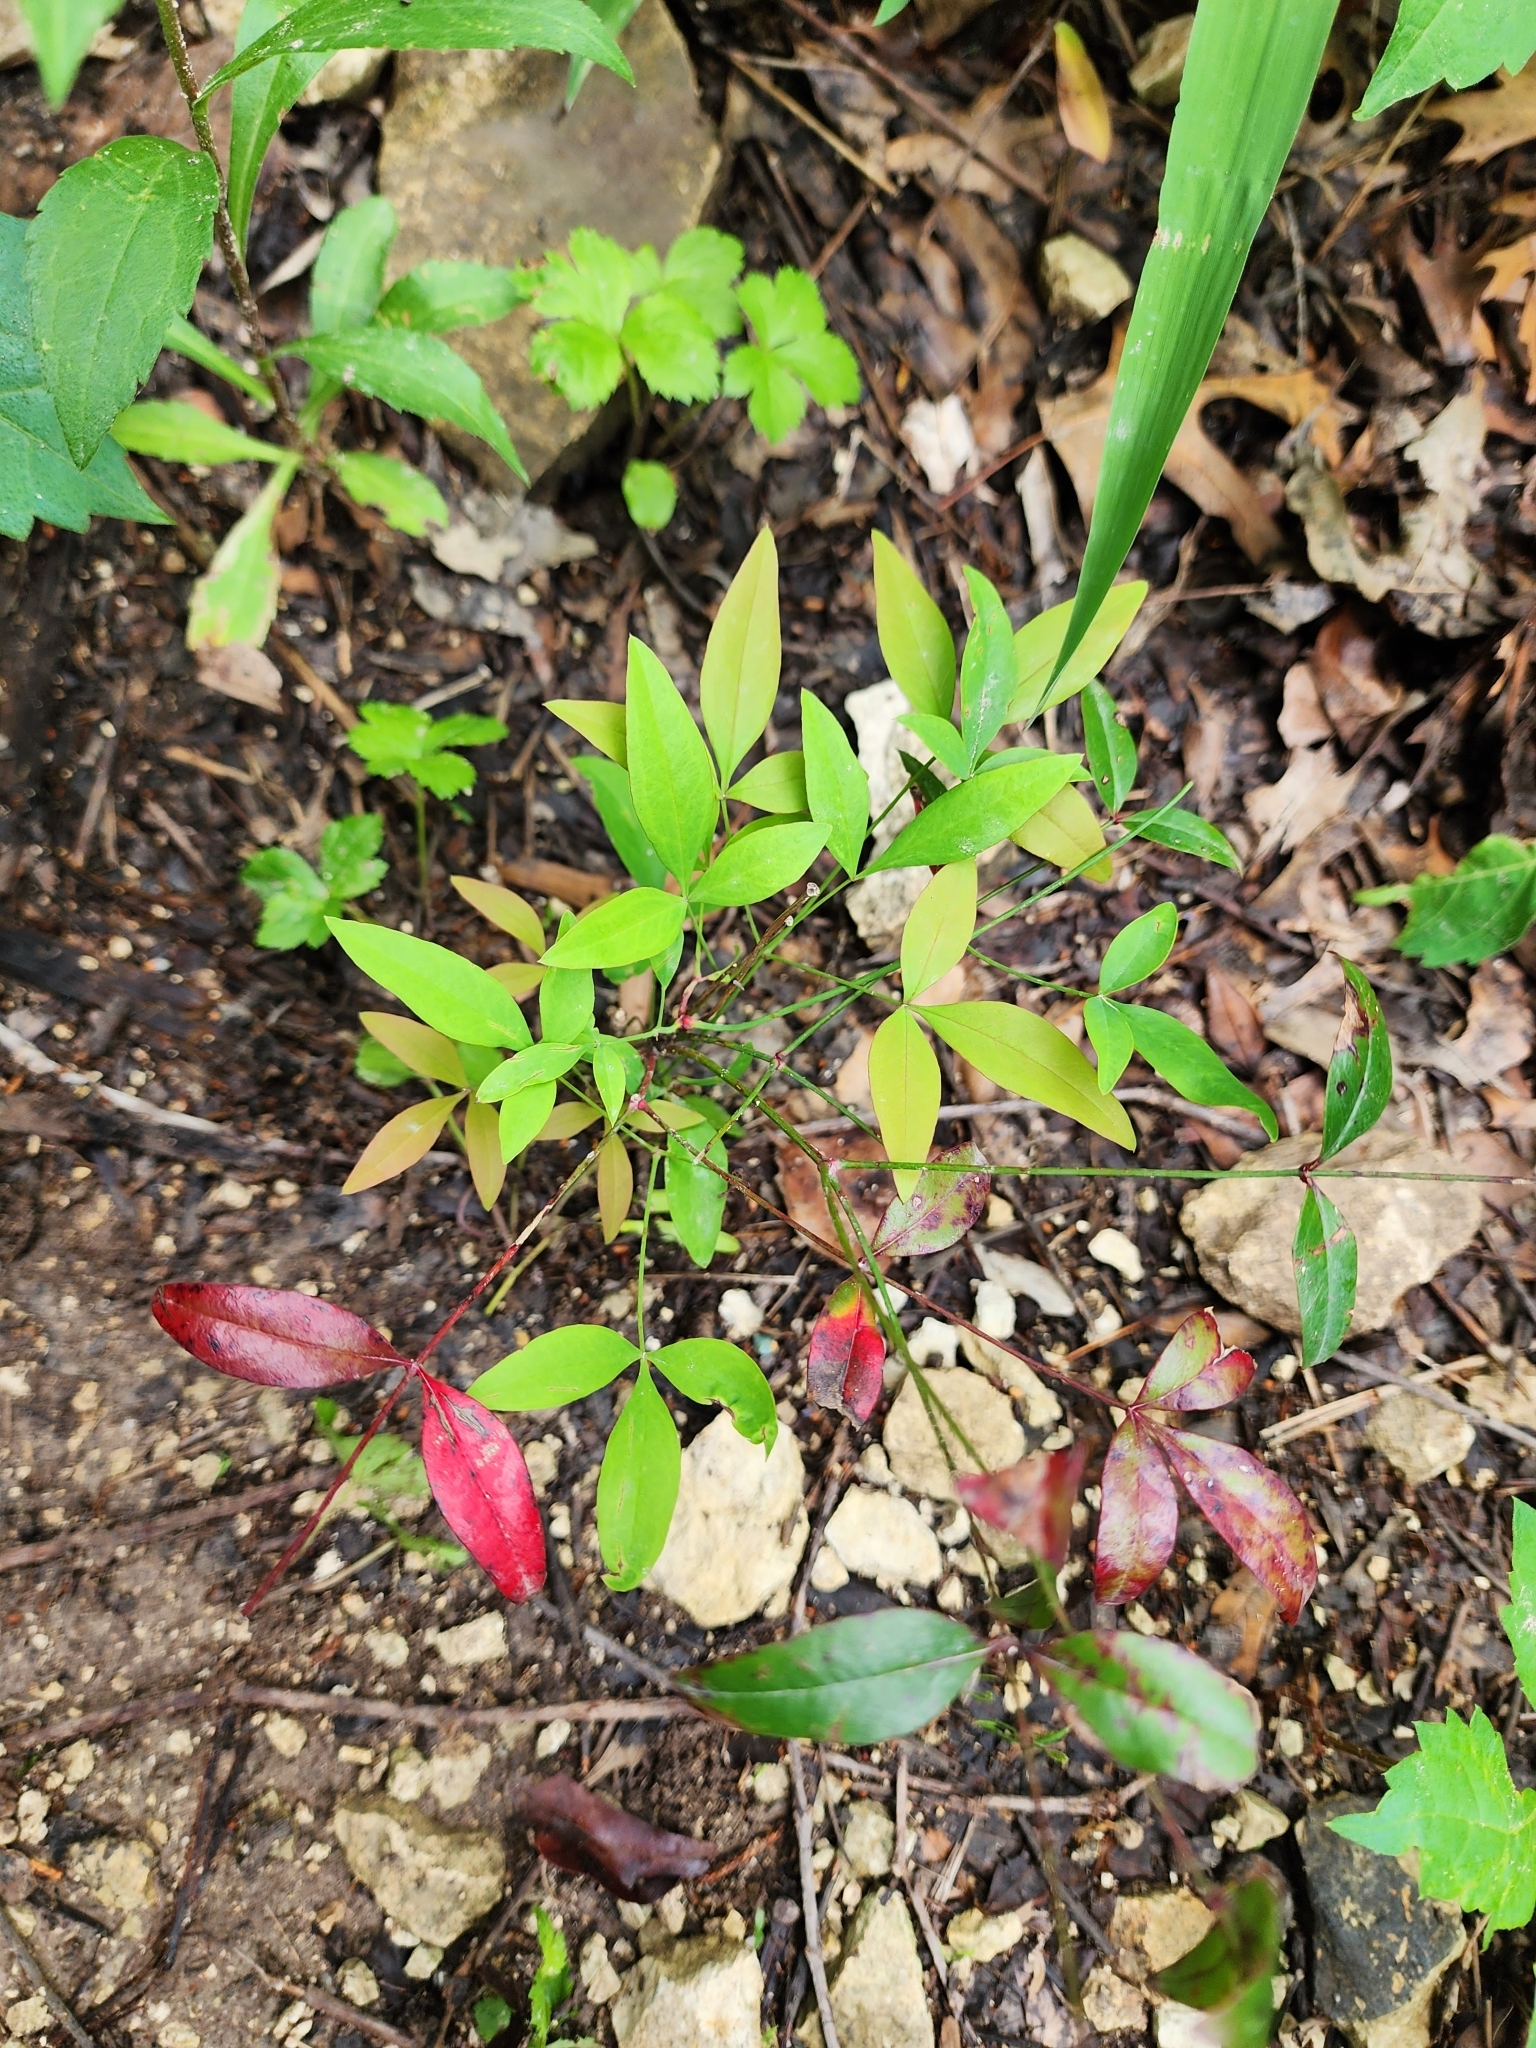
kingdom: Plantae
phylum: Tracheophyta
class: Magnoliopsida
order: Ranunculales
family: Berberidaceae
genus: Nandina
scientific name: Nandina domestica
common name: Sacred bamboo
